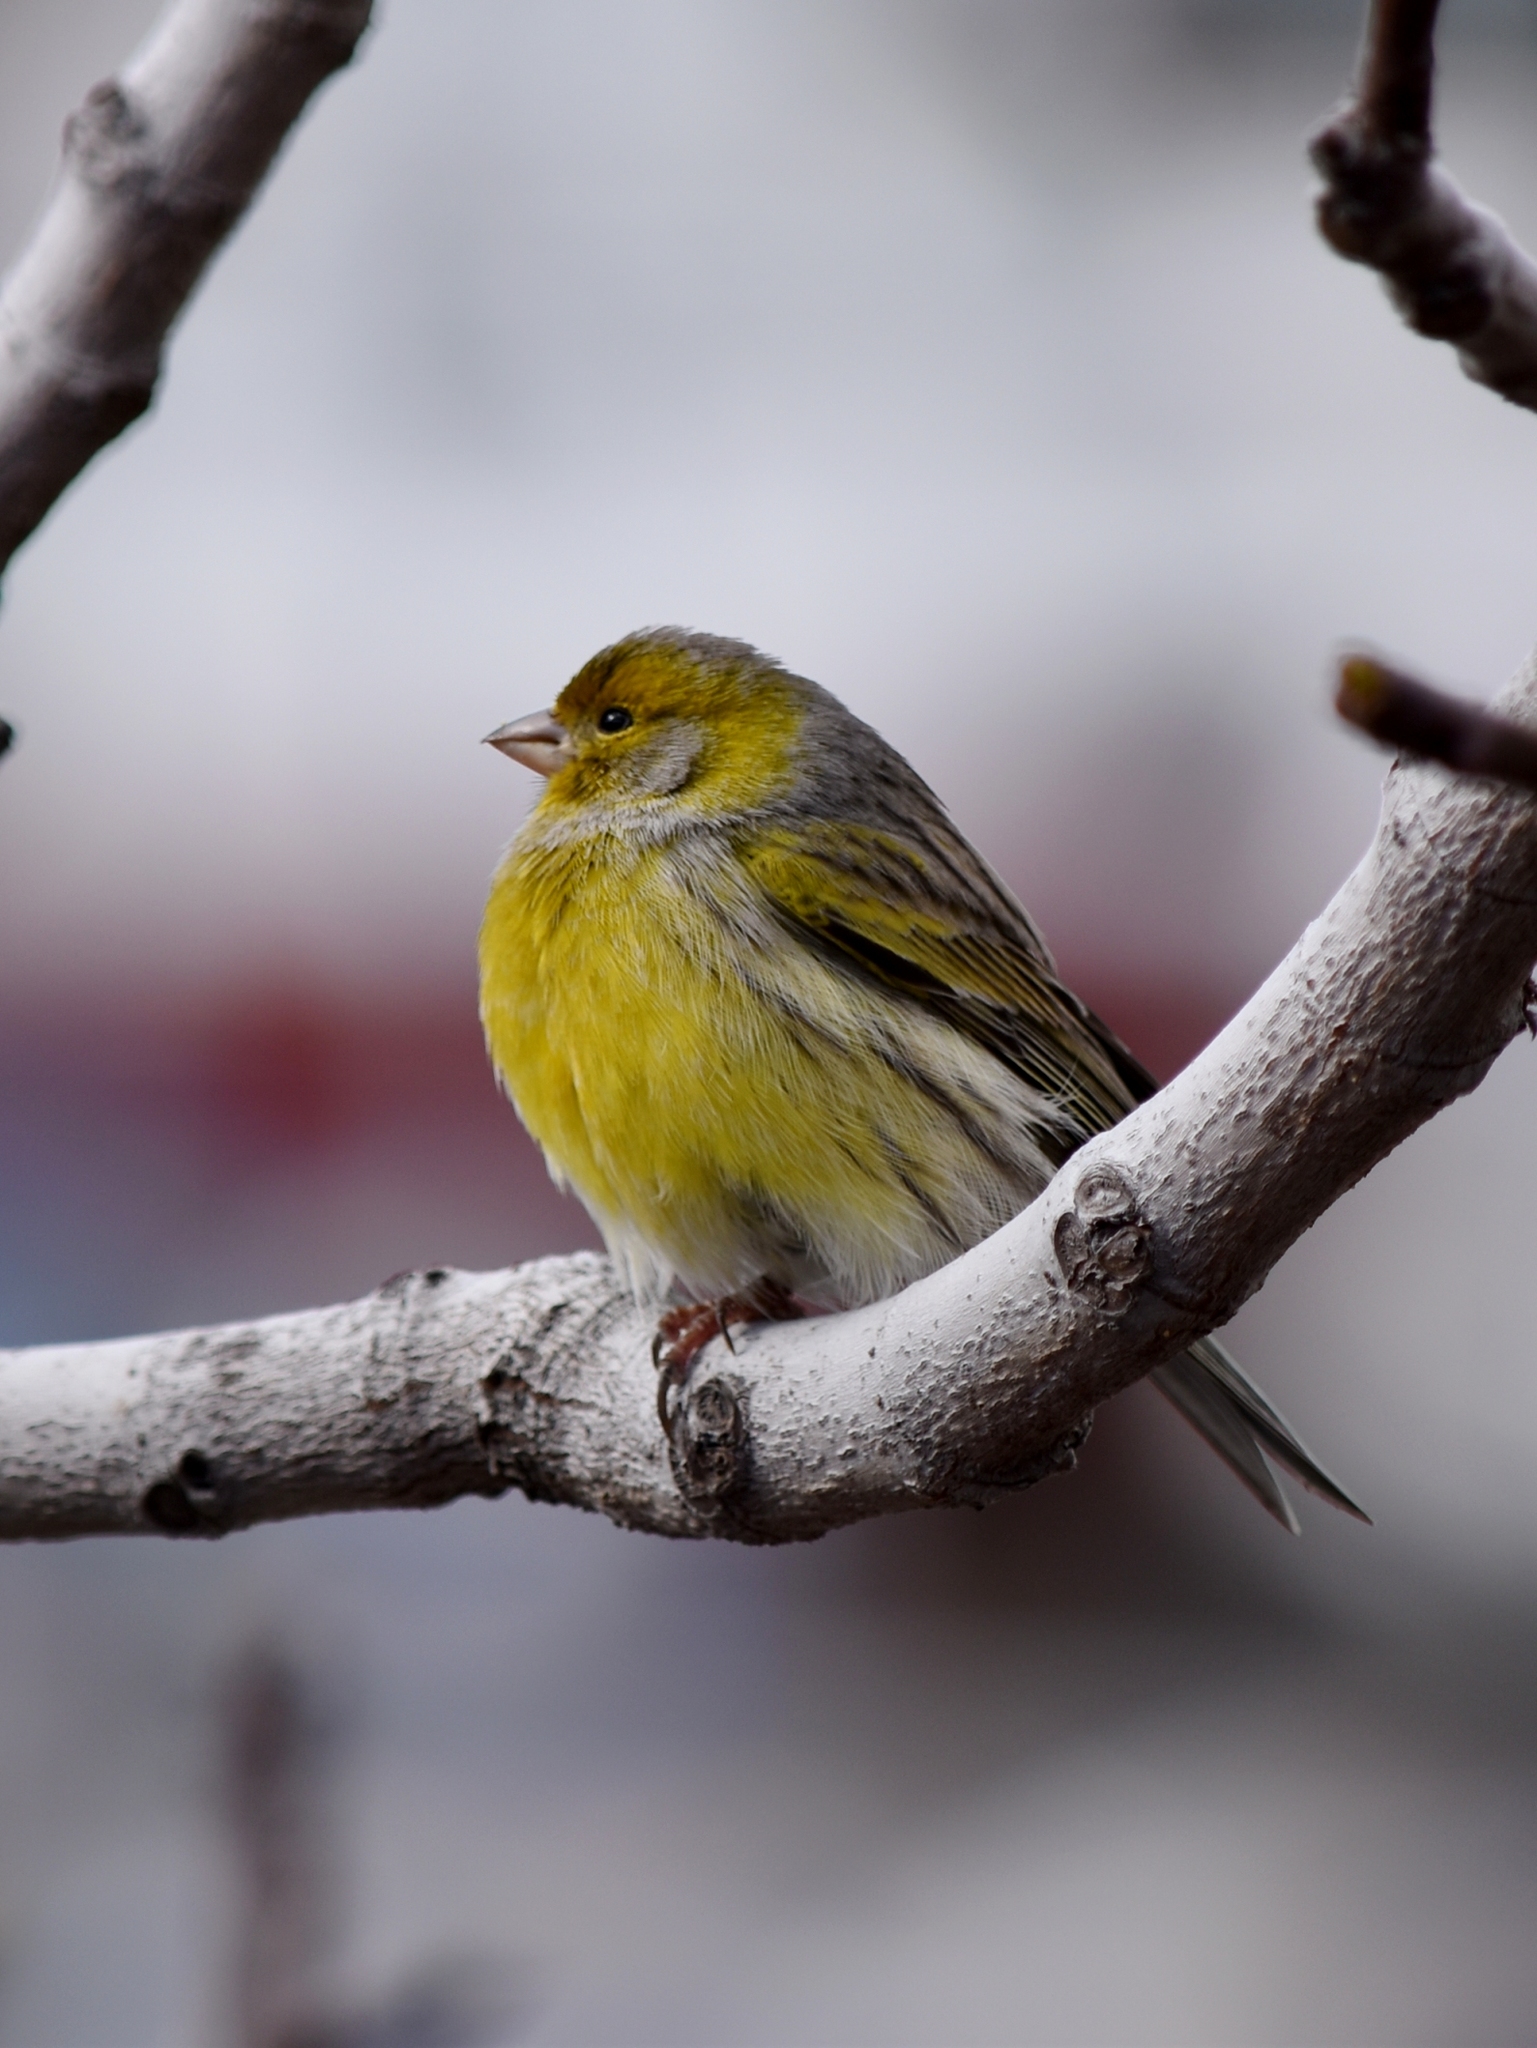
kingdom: Animalia
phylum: Chordata
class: Aves
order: Passeriformes
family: Fringillidae
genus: Serinus
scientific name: Serinus canaria
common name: Atlantic canary
